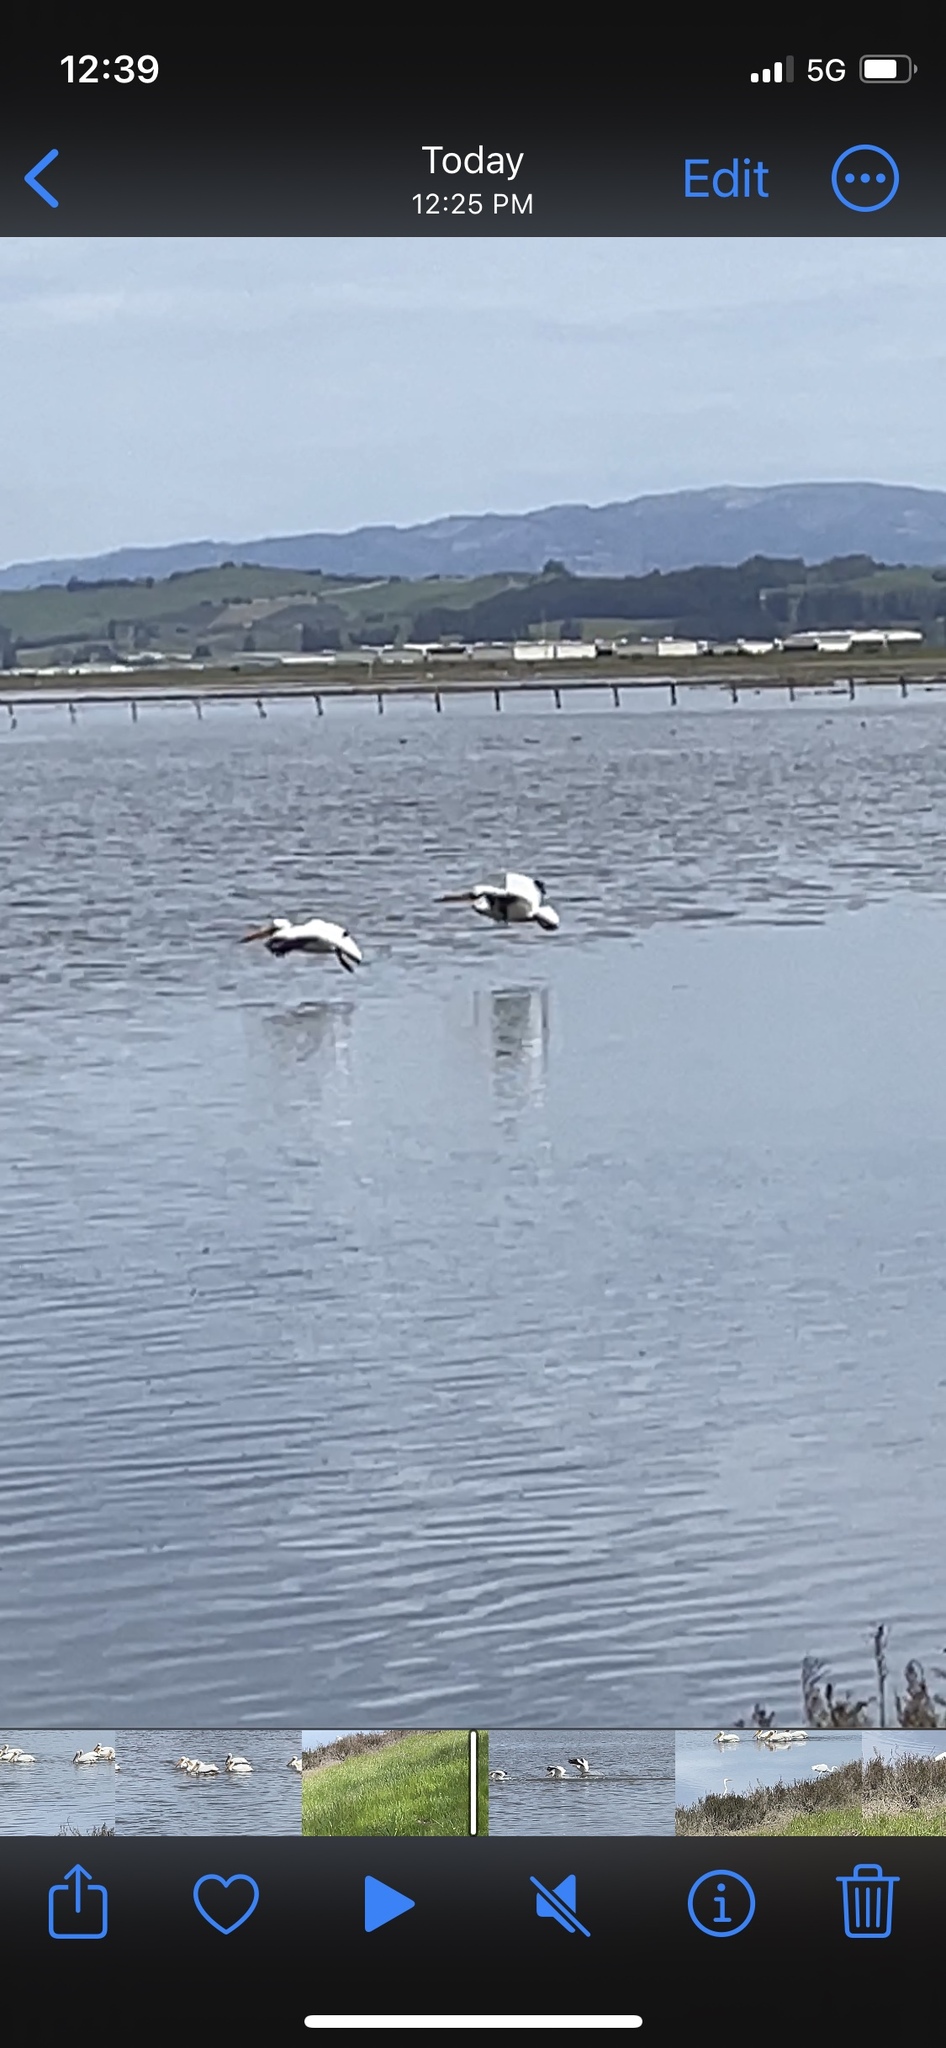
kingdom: Animalia
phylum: Chordata
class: Aves
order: Pelecaniformes
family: Pelecanidae
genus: Pelecanus
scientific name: Pelecanus erythrorhynchos
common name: American white pelican
